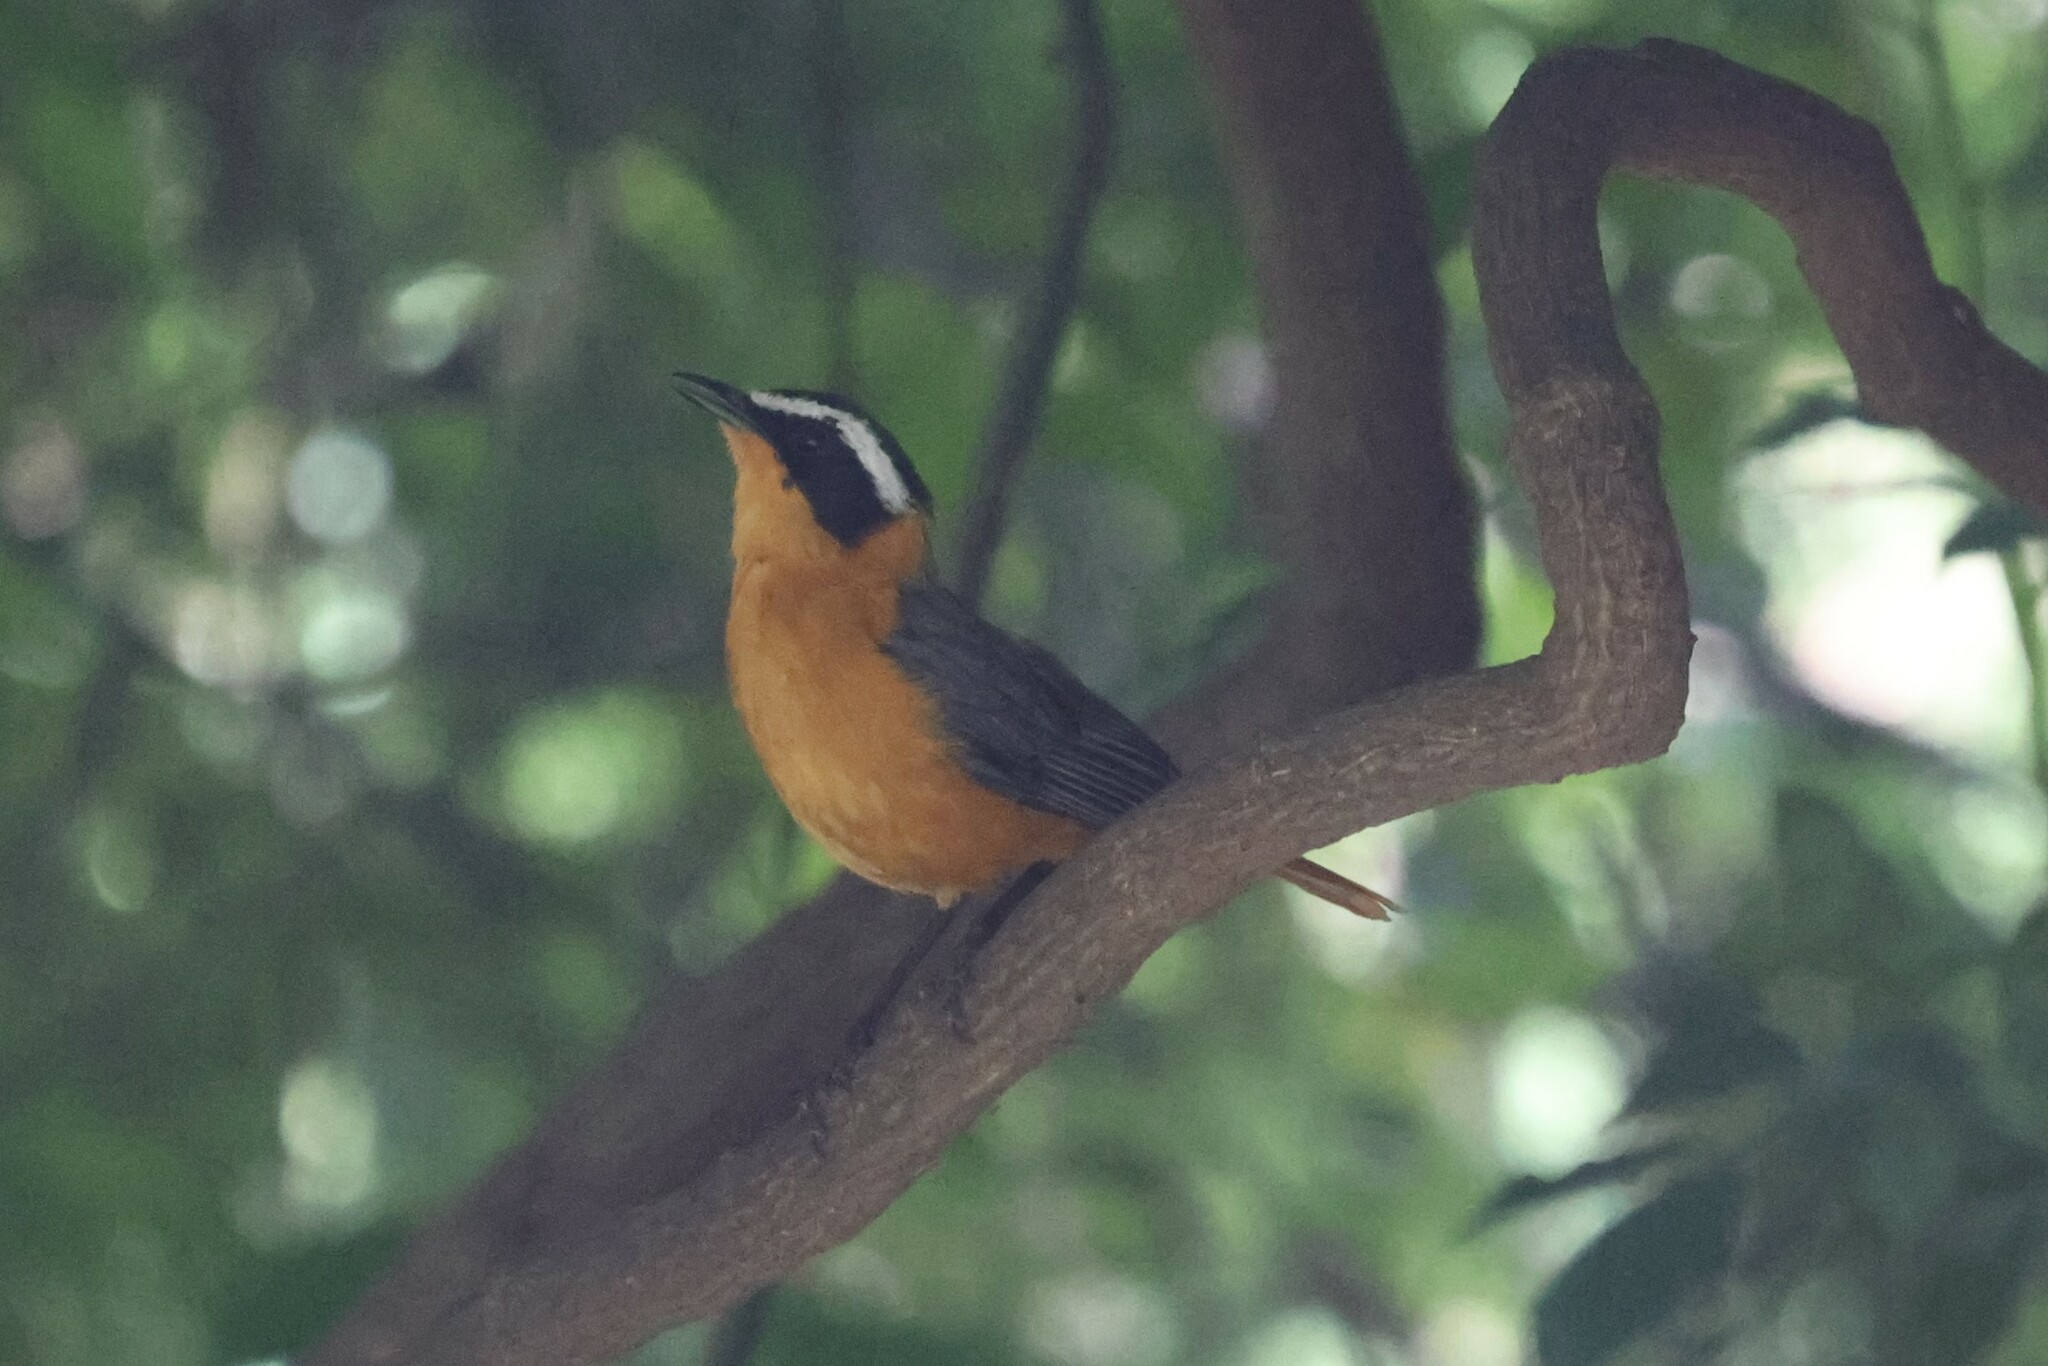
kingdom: Animalia
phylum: Chordata
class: Aves
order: Passeriformes
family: Muscicapidae
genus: Cossypha
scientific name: Cossypha heuglini
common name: White-browed robin-chat
